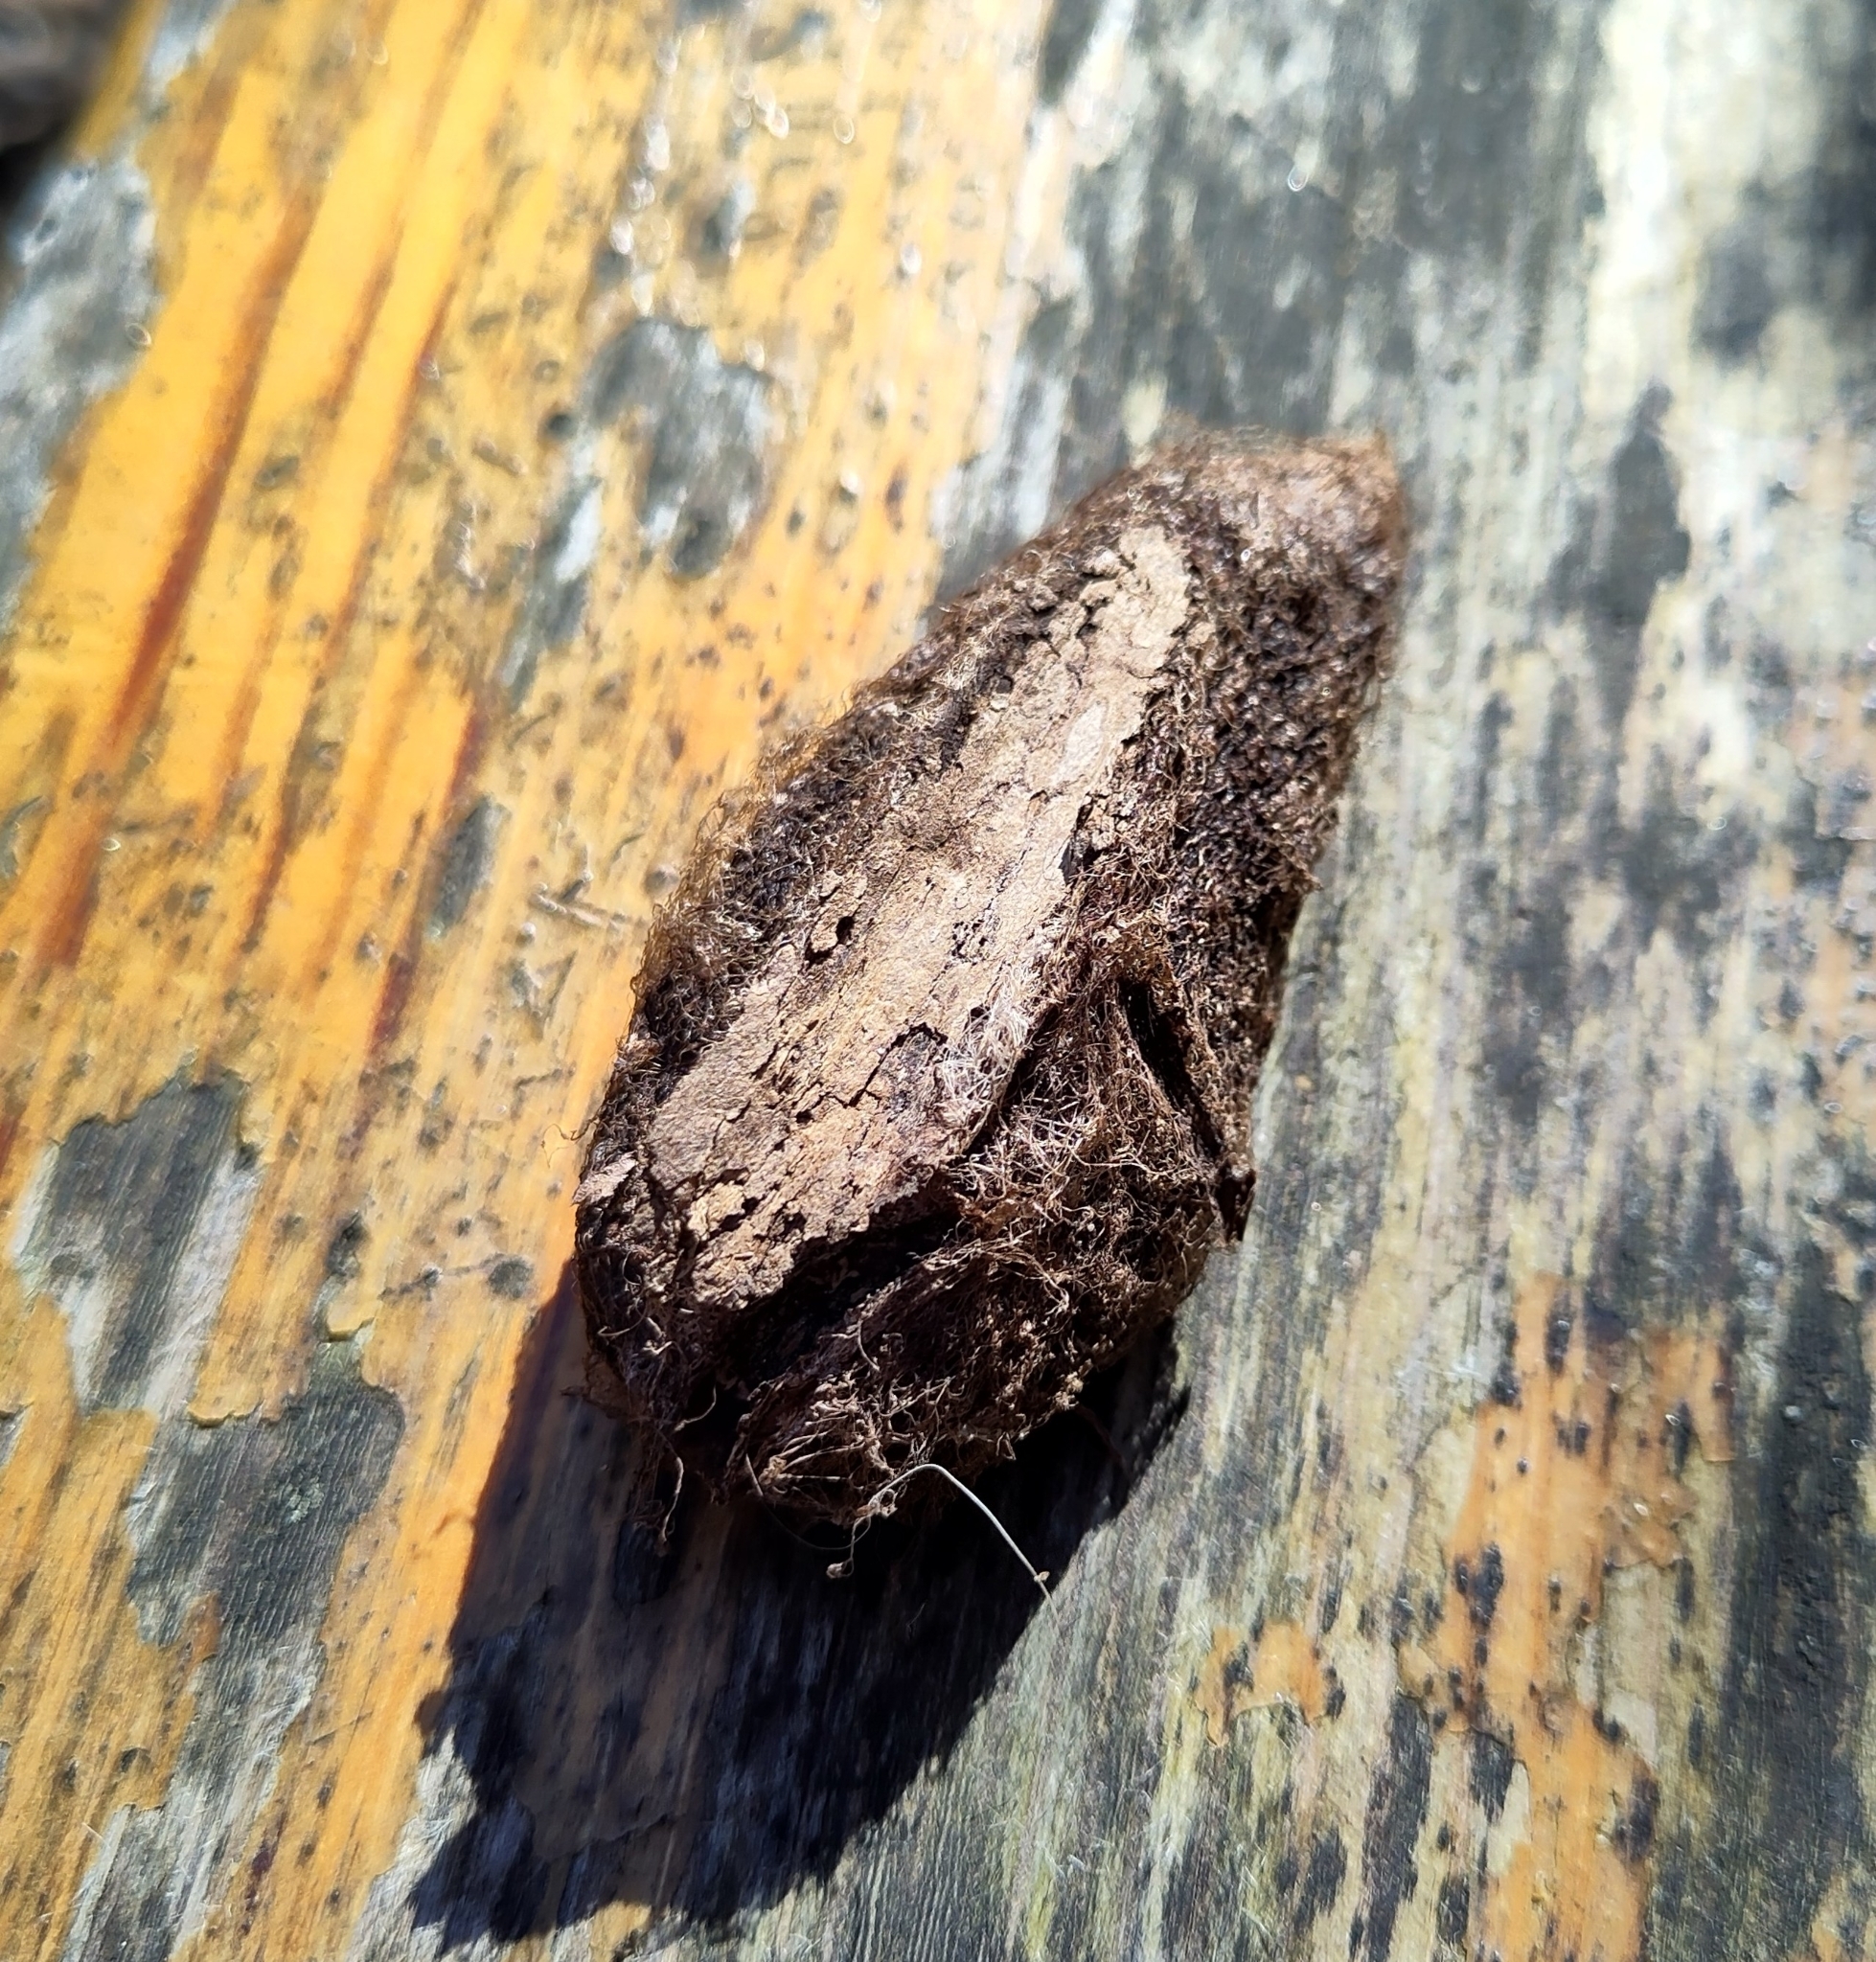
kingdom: Animalia
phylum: Arthropoda
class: Insecta
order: Lepidoptera
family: Saturniidae
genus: Saturnia
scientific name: Saturnia pyri
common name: Great peacock moth
